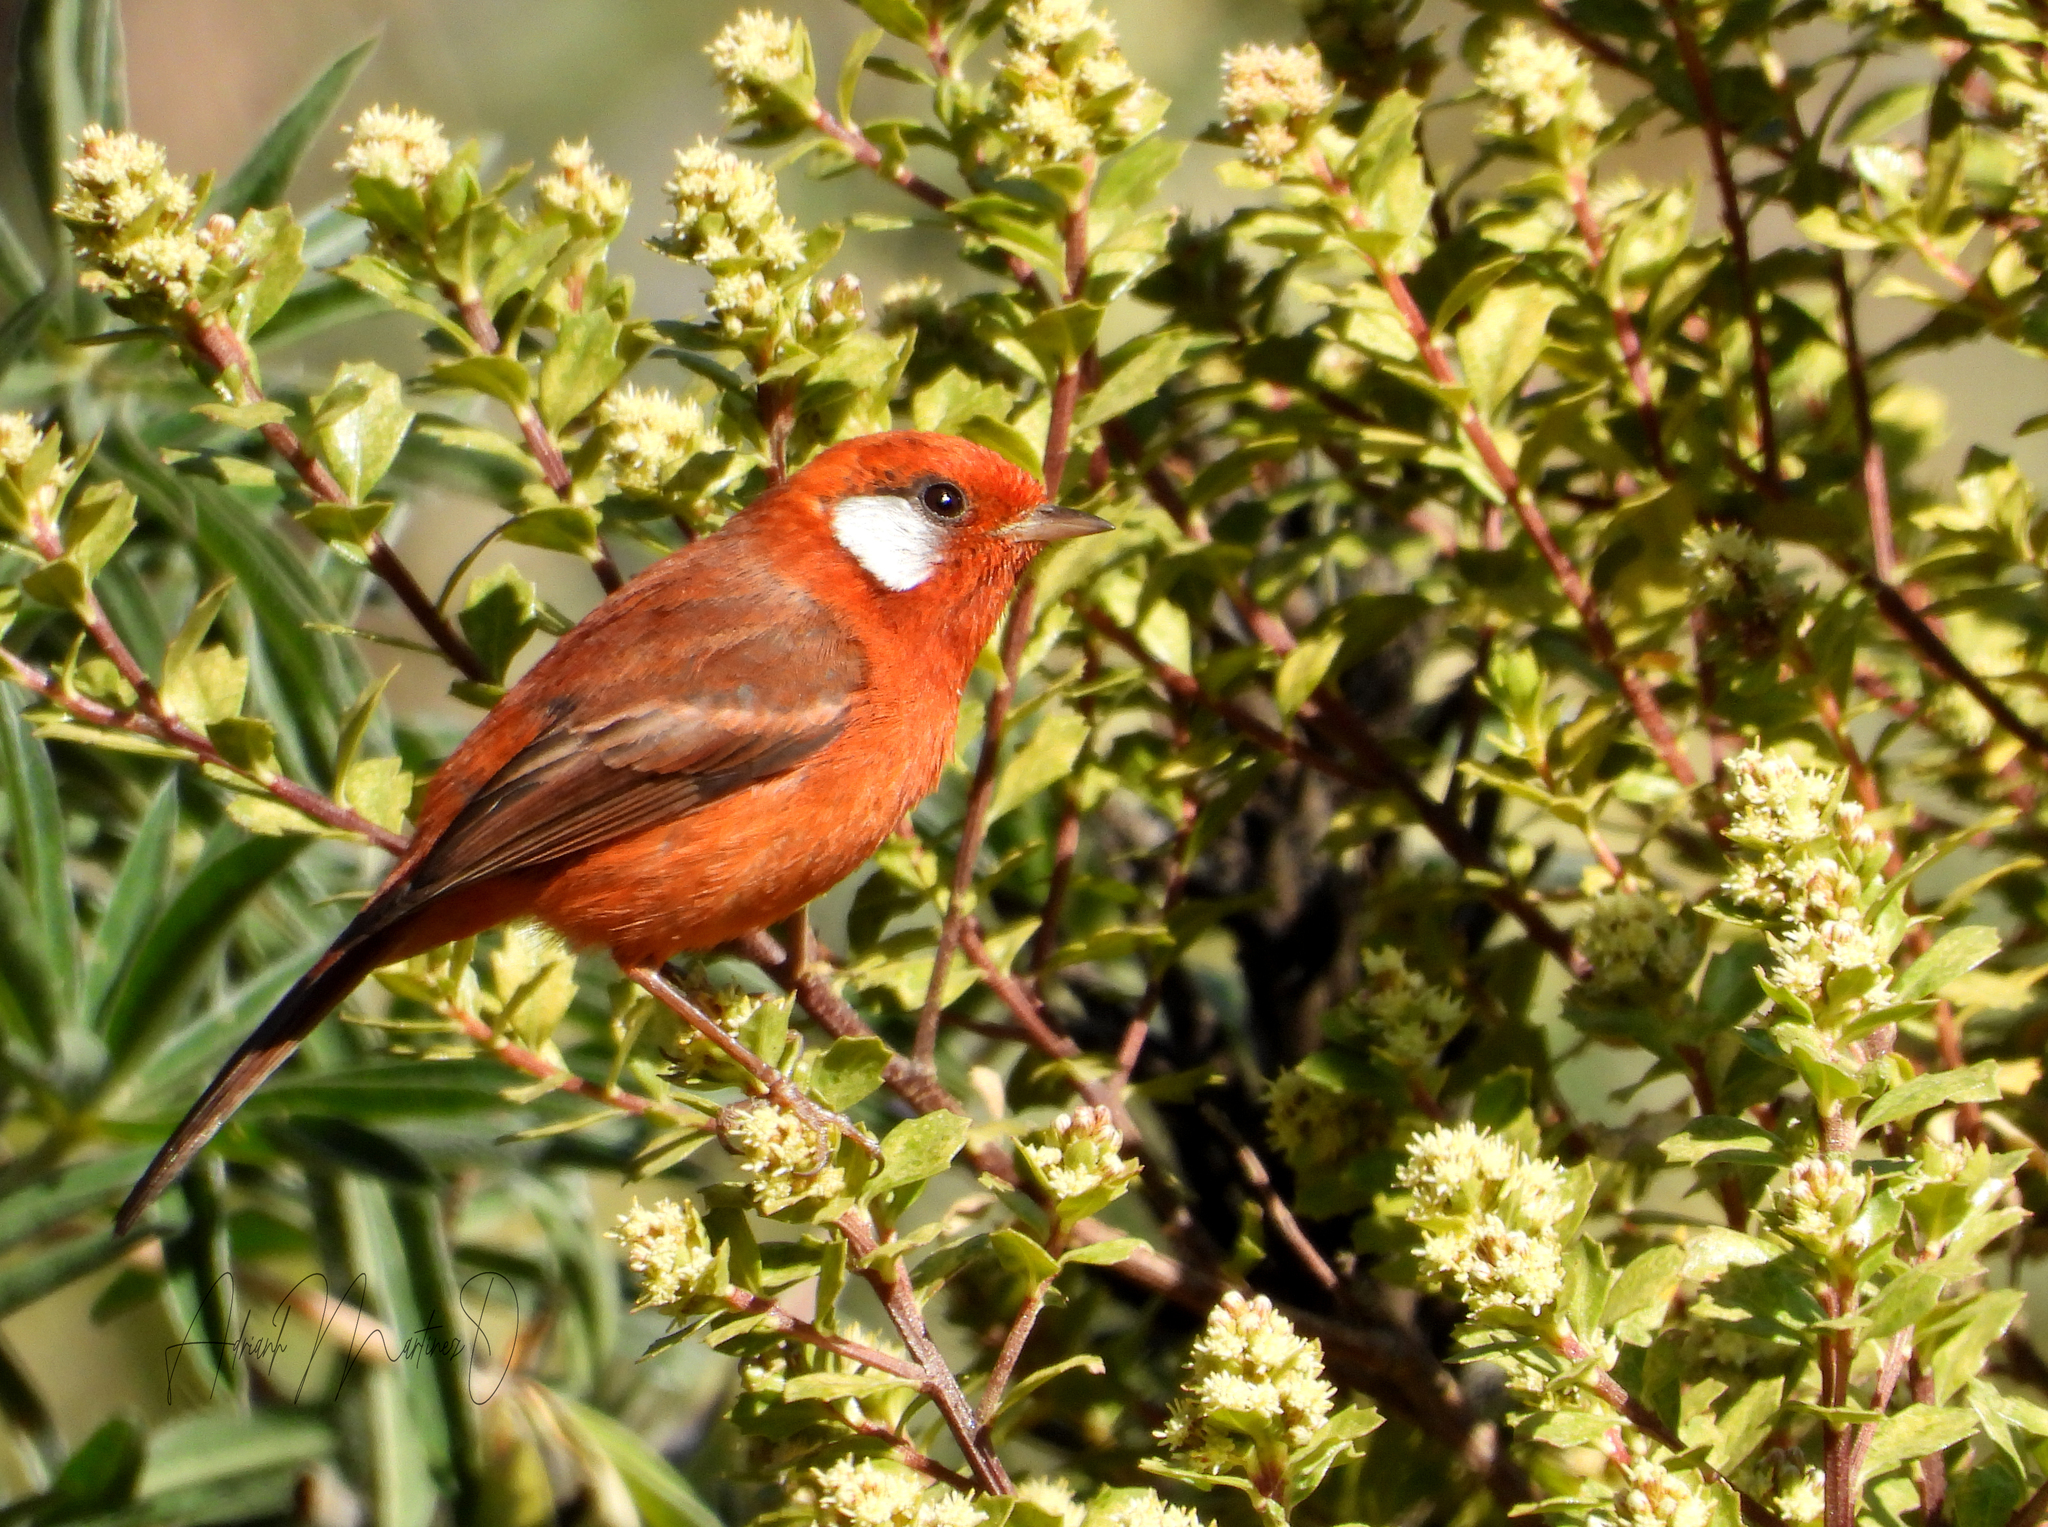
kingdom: Animalia
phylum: Chordata
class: Aves
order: Passeriformes
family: Parulidae
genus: Cardellina
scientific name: Cardellina rubra
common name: Red warbler
